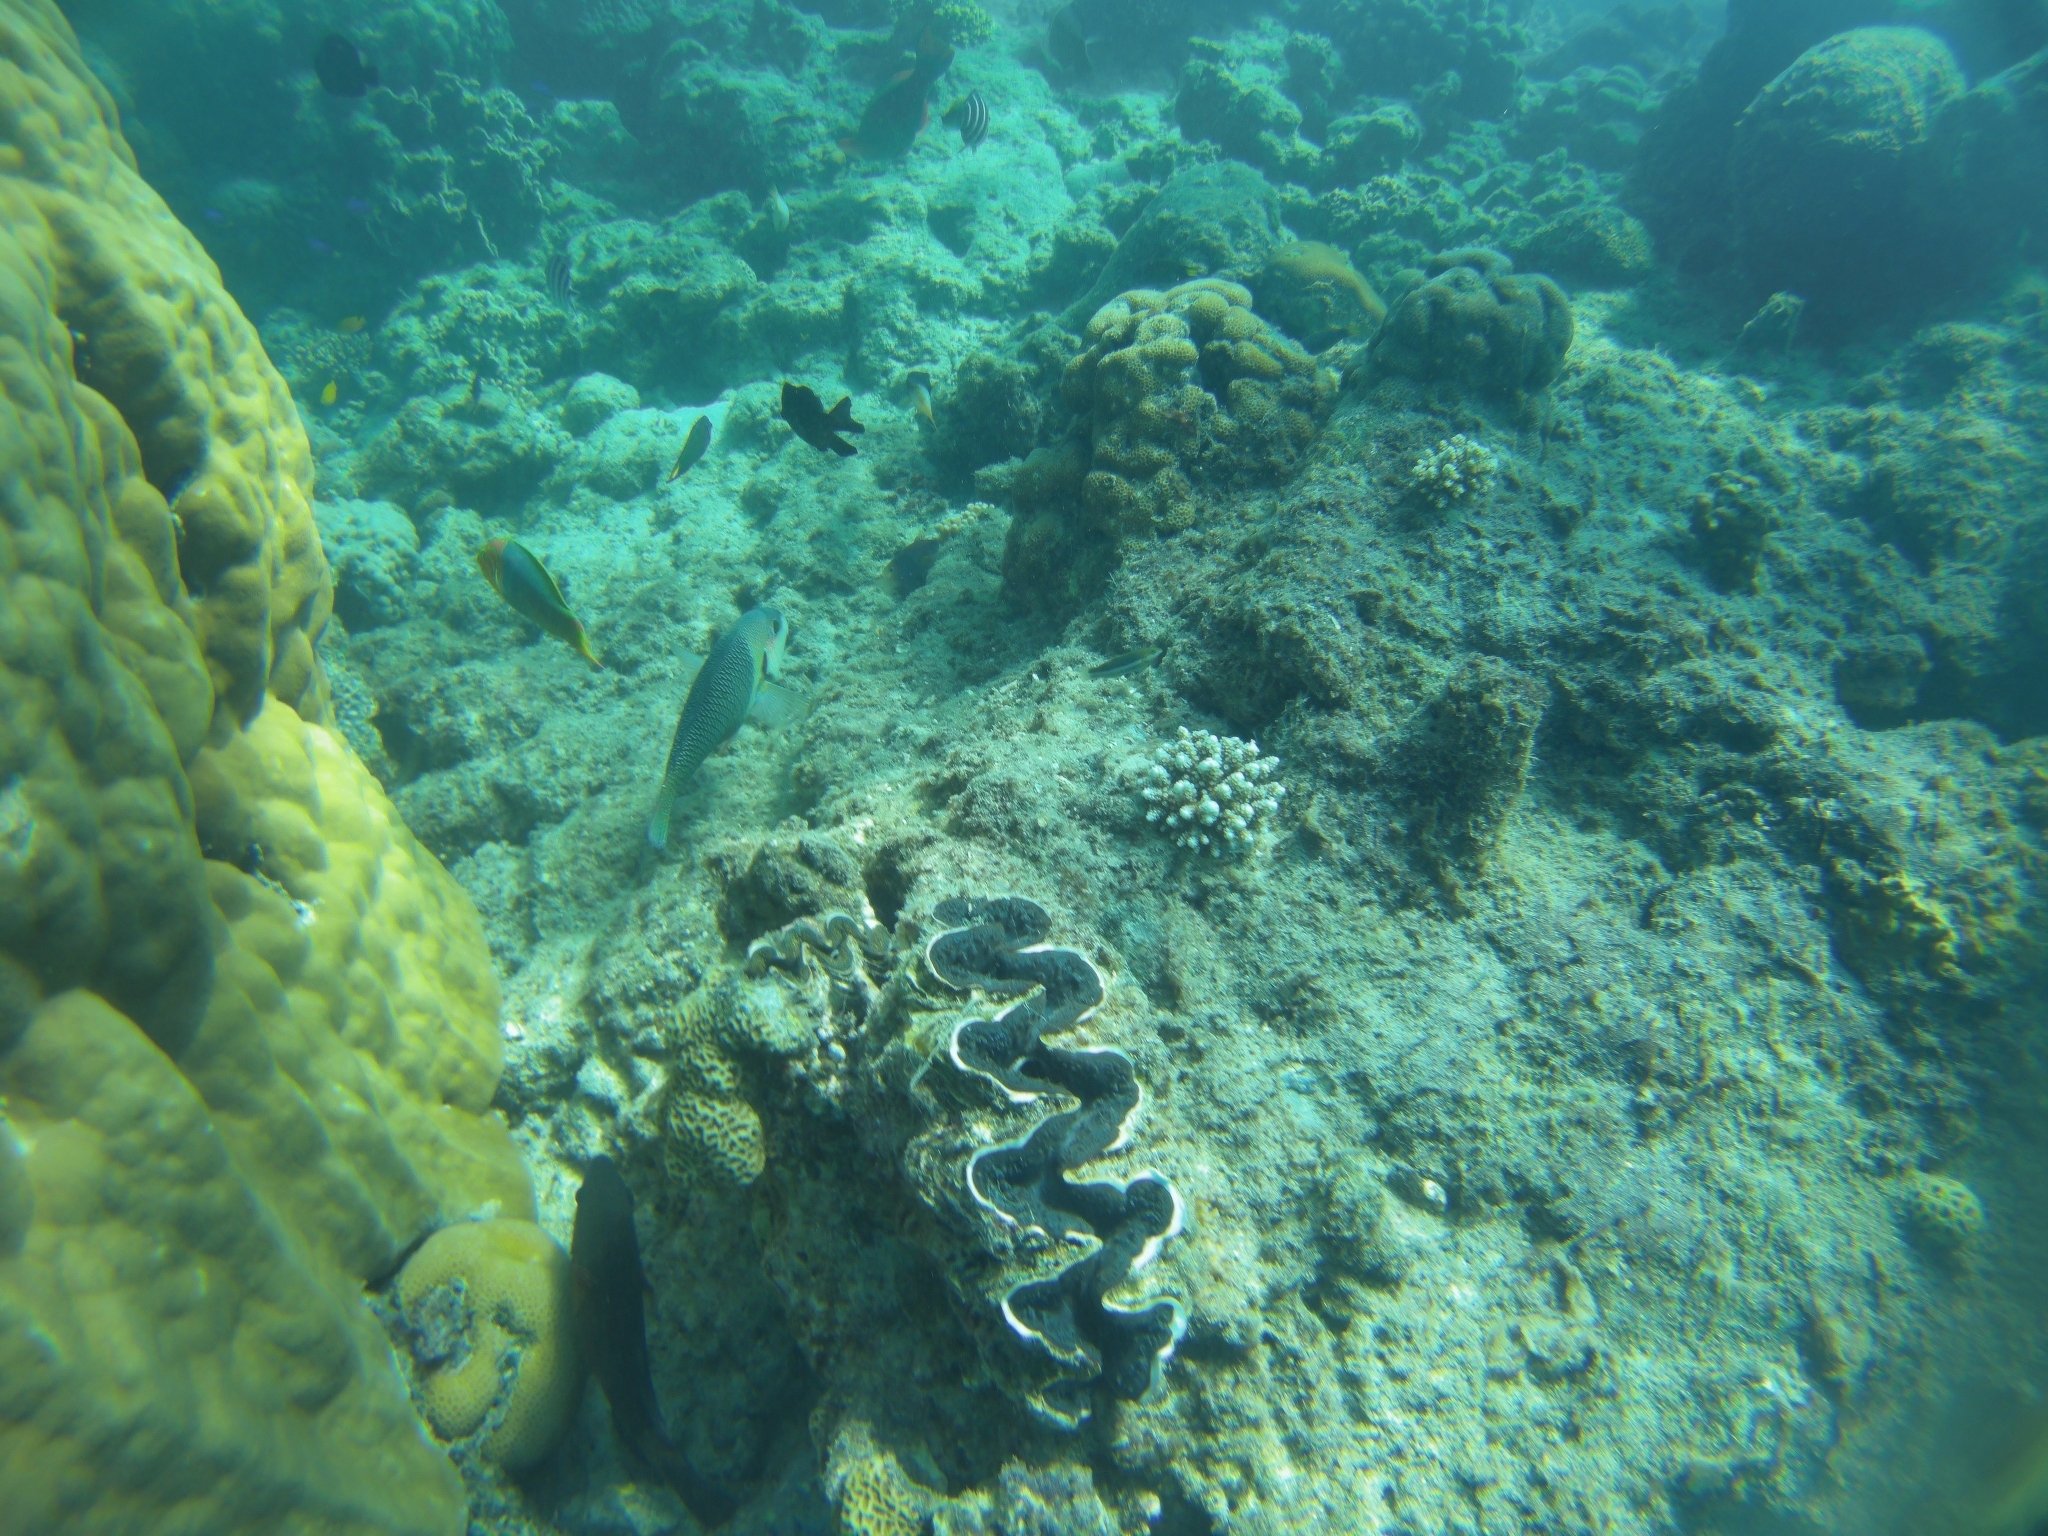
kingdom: Animalia
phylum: Mollusca
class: Bivalvia
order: Cardiida
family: Cardiidae
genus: Tridacna
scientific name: Tridacna noae
